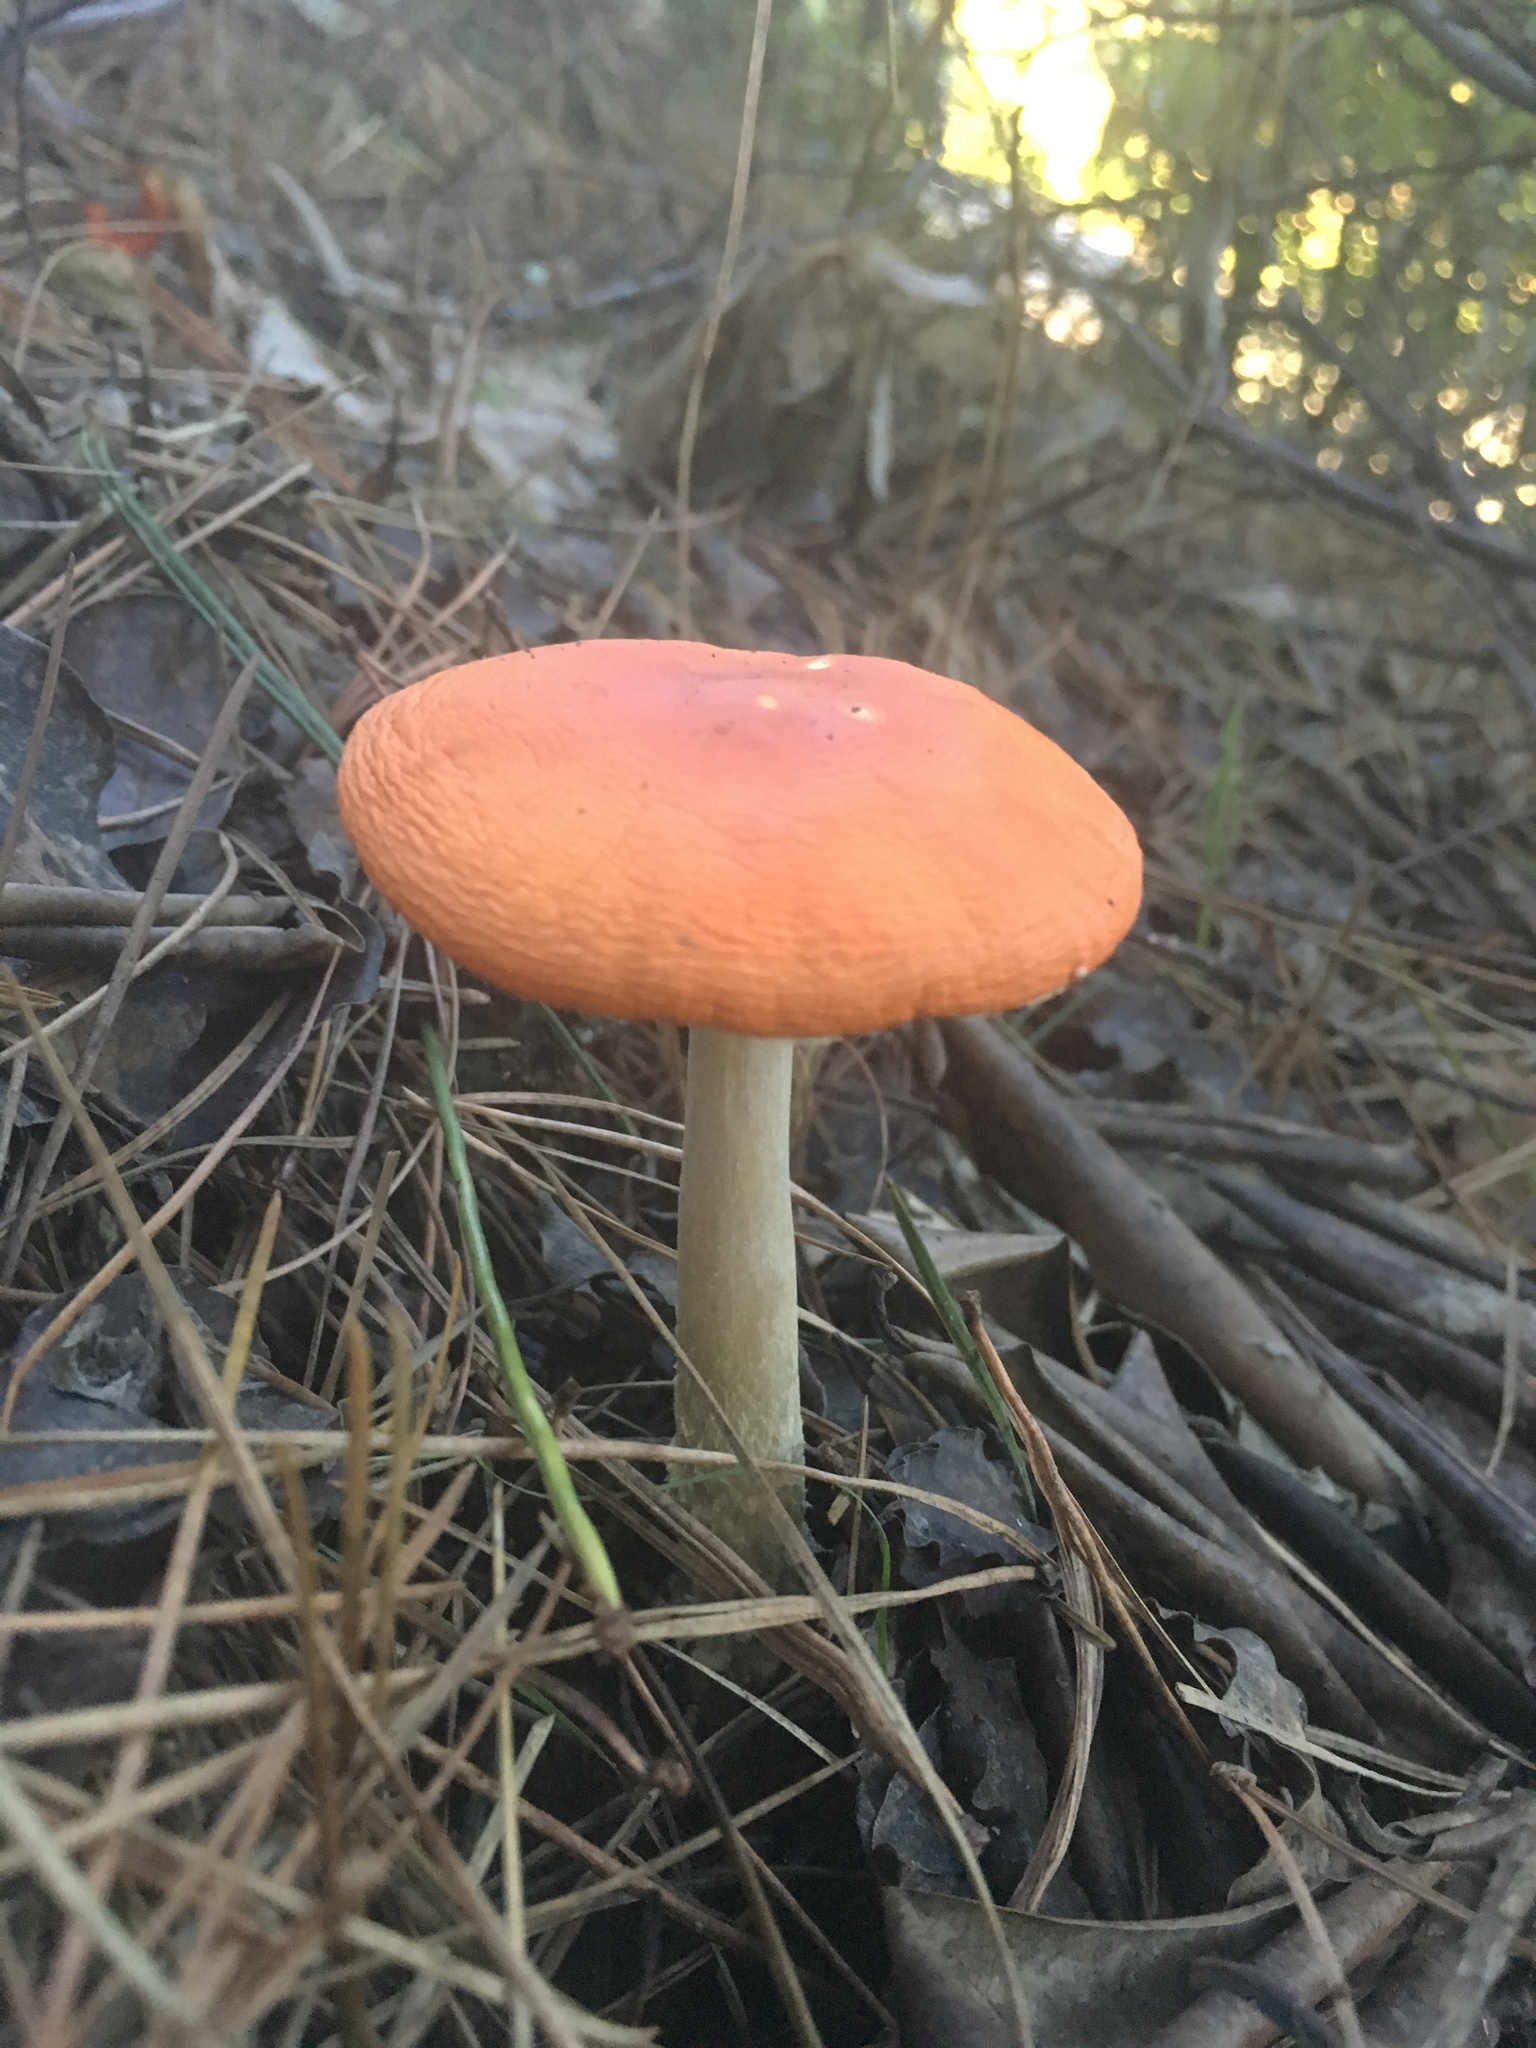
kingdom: Fungi
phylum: Basidiomycota
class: Agaricomycetes
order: Agaricales
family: Amanitaceae
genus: Amanita
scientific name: Amanita muscaria
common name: Fly agaric
